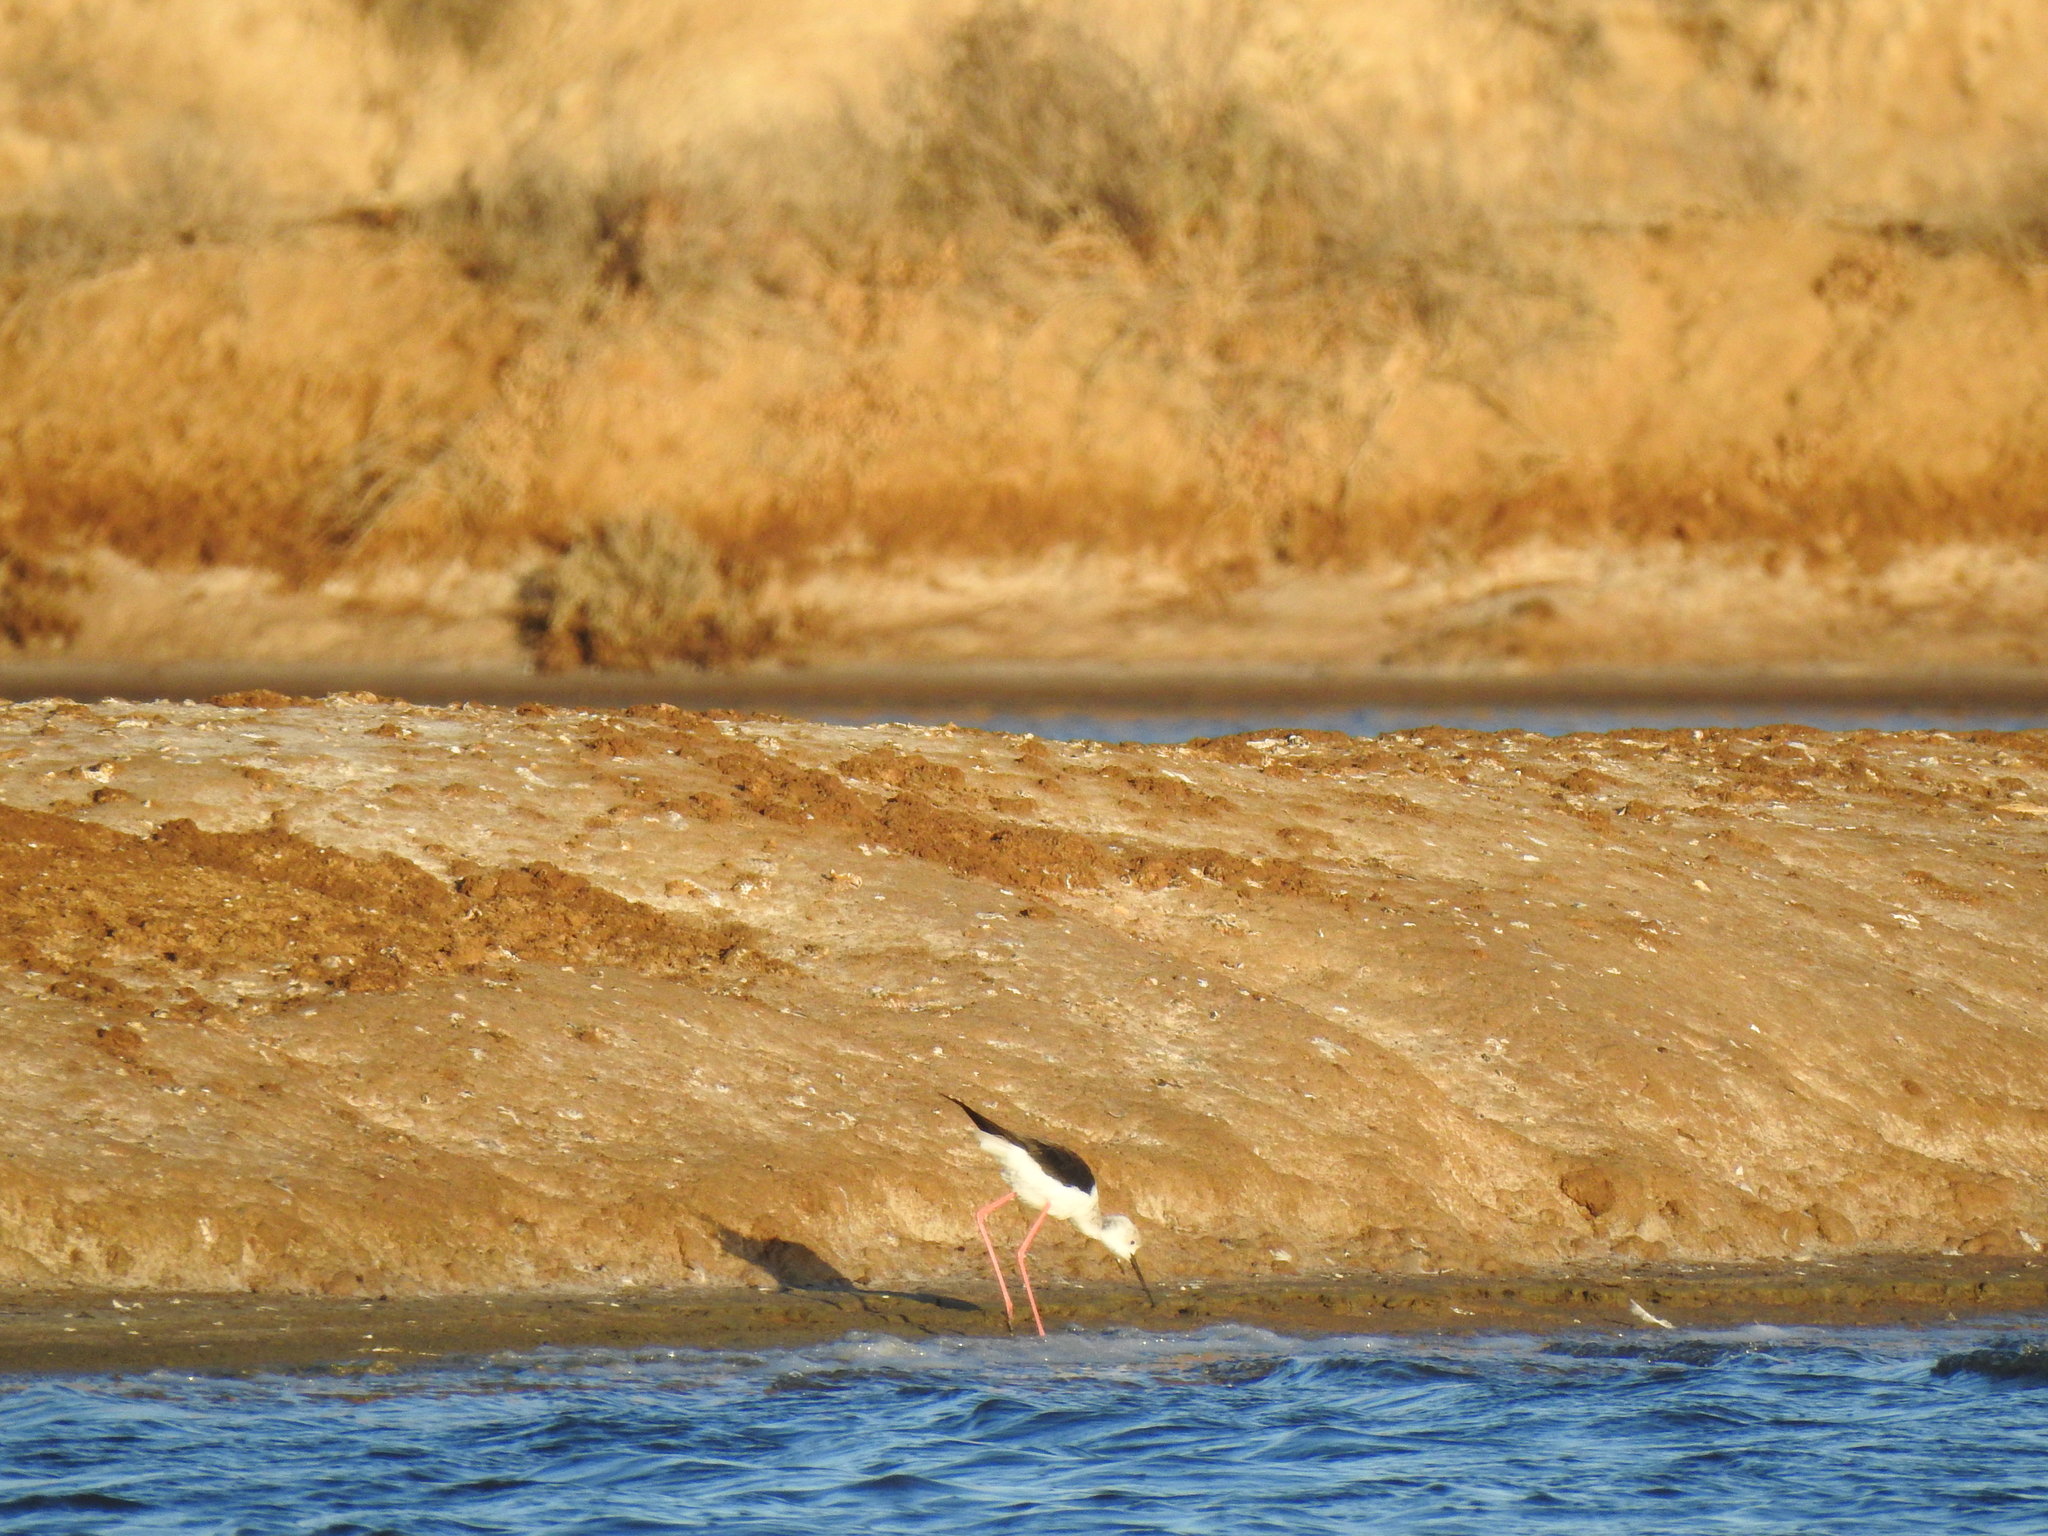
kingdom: Animalia
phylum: Chordata
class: Aves
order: Charadriiformes
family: Recurvirostridae
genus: Himantopus
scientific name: Himantopus himantopus
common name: Black-winged stilt
